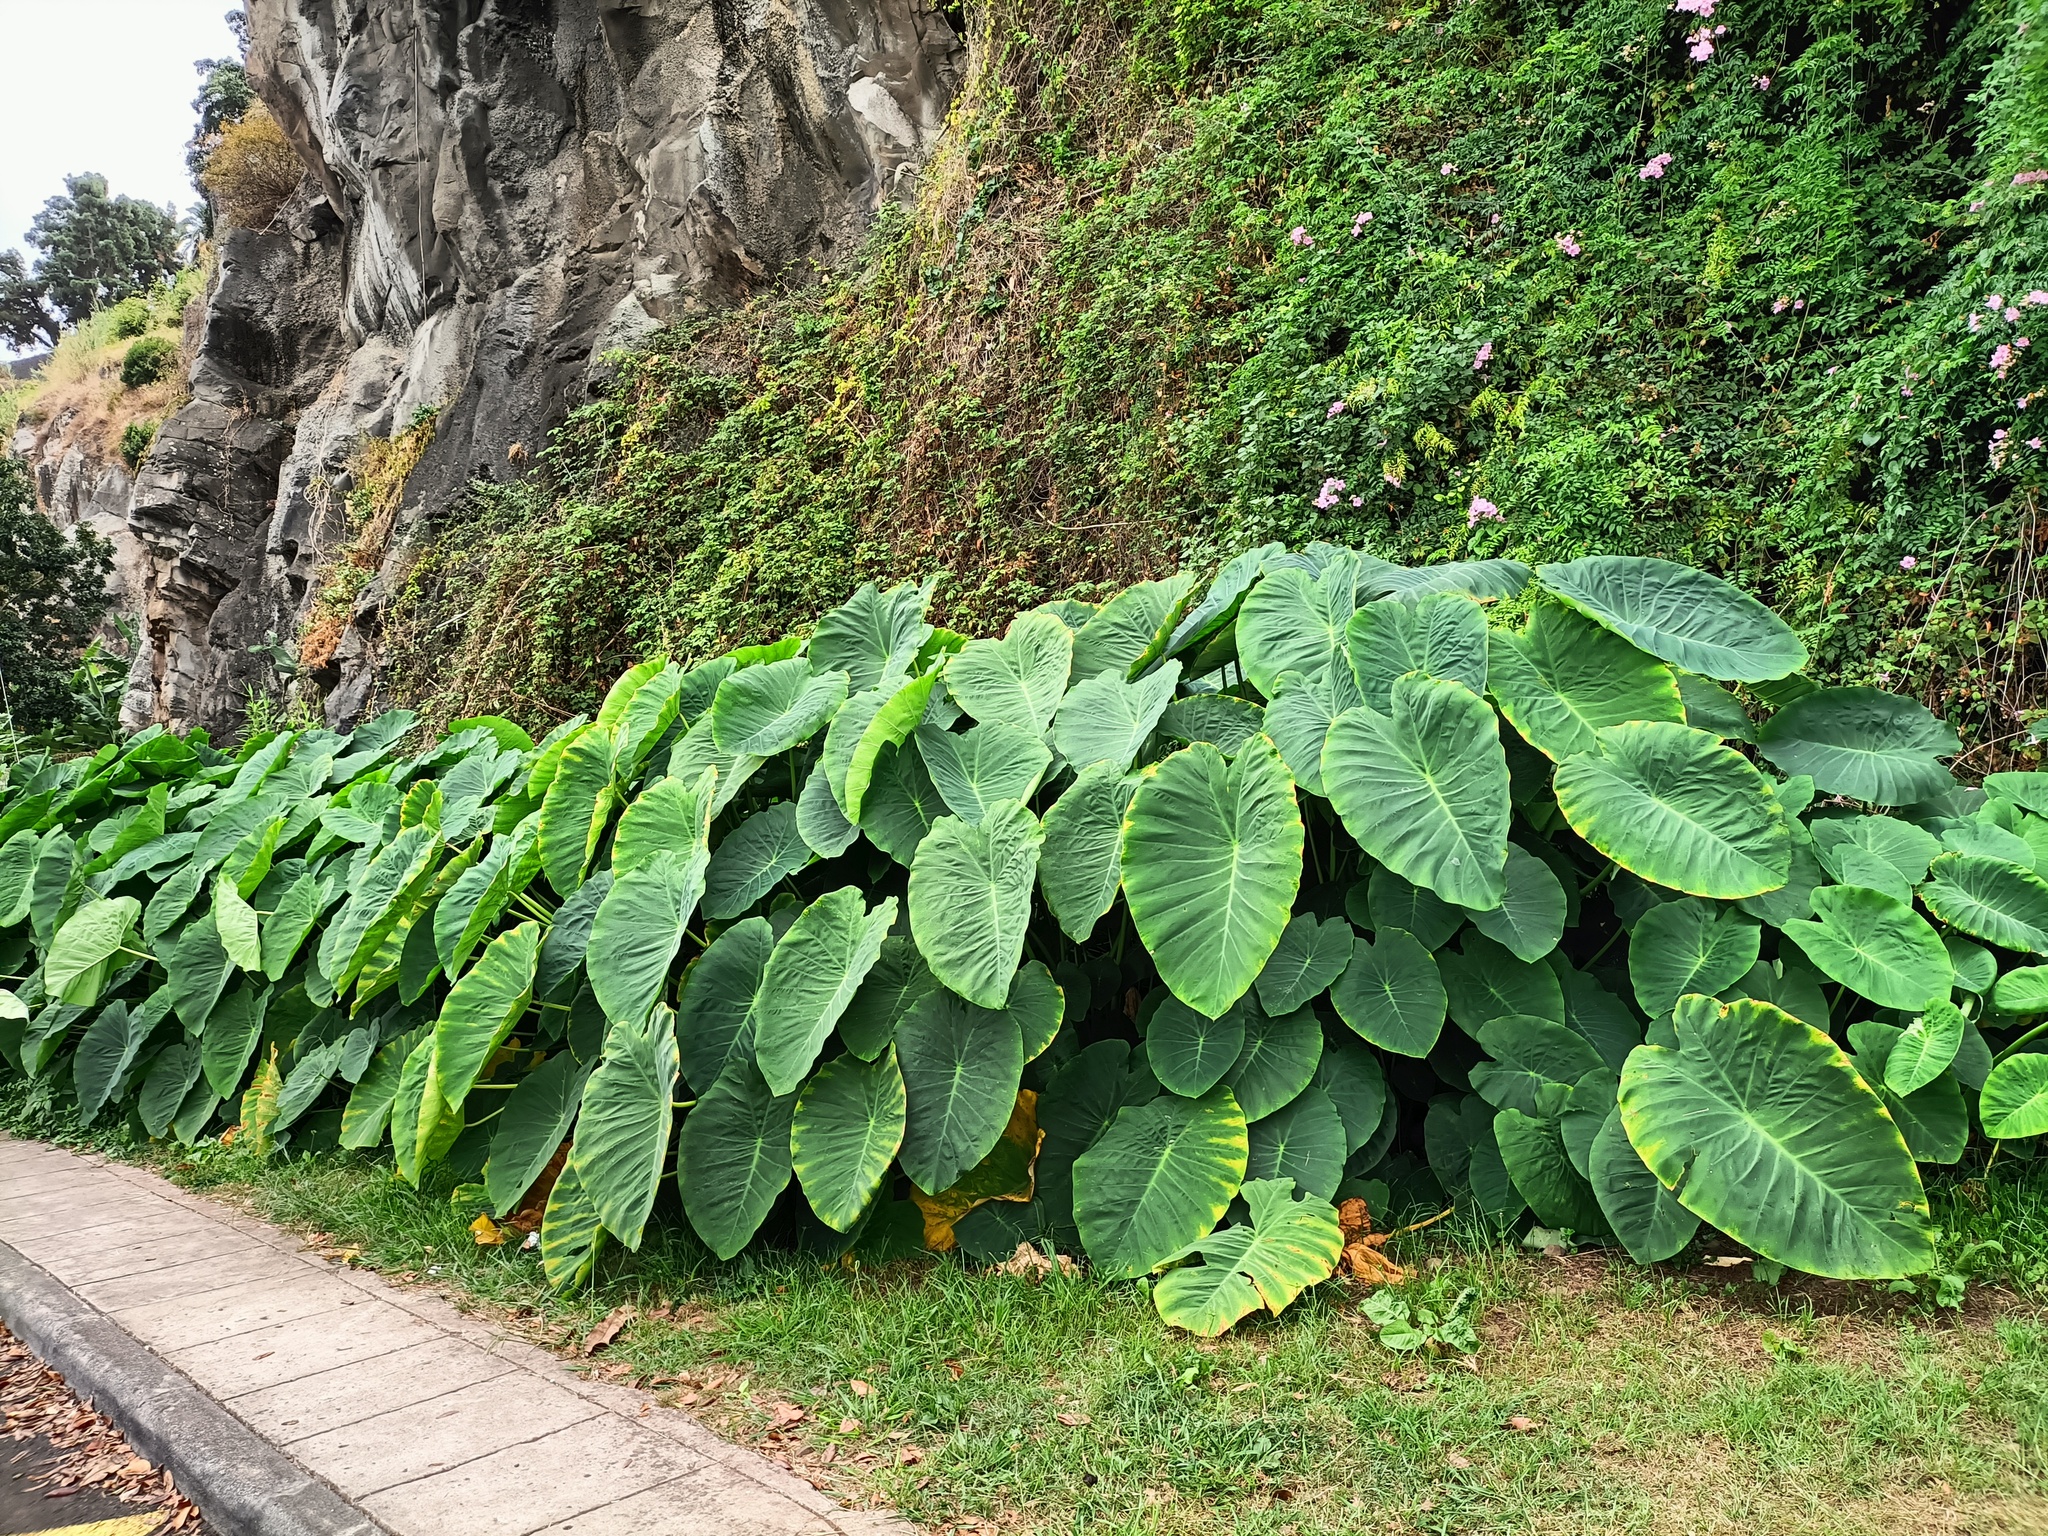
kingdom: Plantae
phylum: Tracheophyta
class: Liliopsida
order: Alismatales
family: Araceae
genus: Colocasia
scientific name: Colocasia esculenta
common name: Taro
